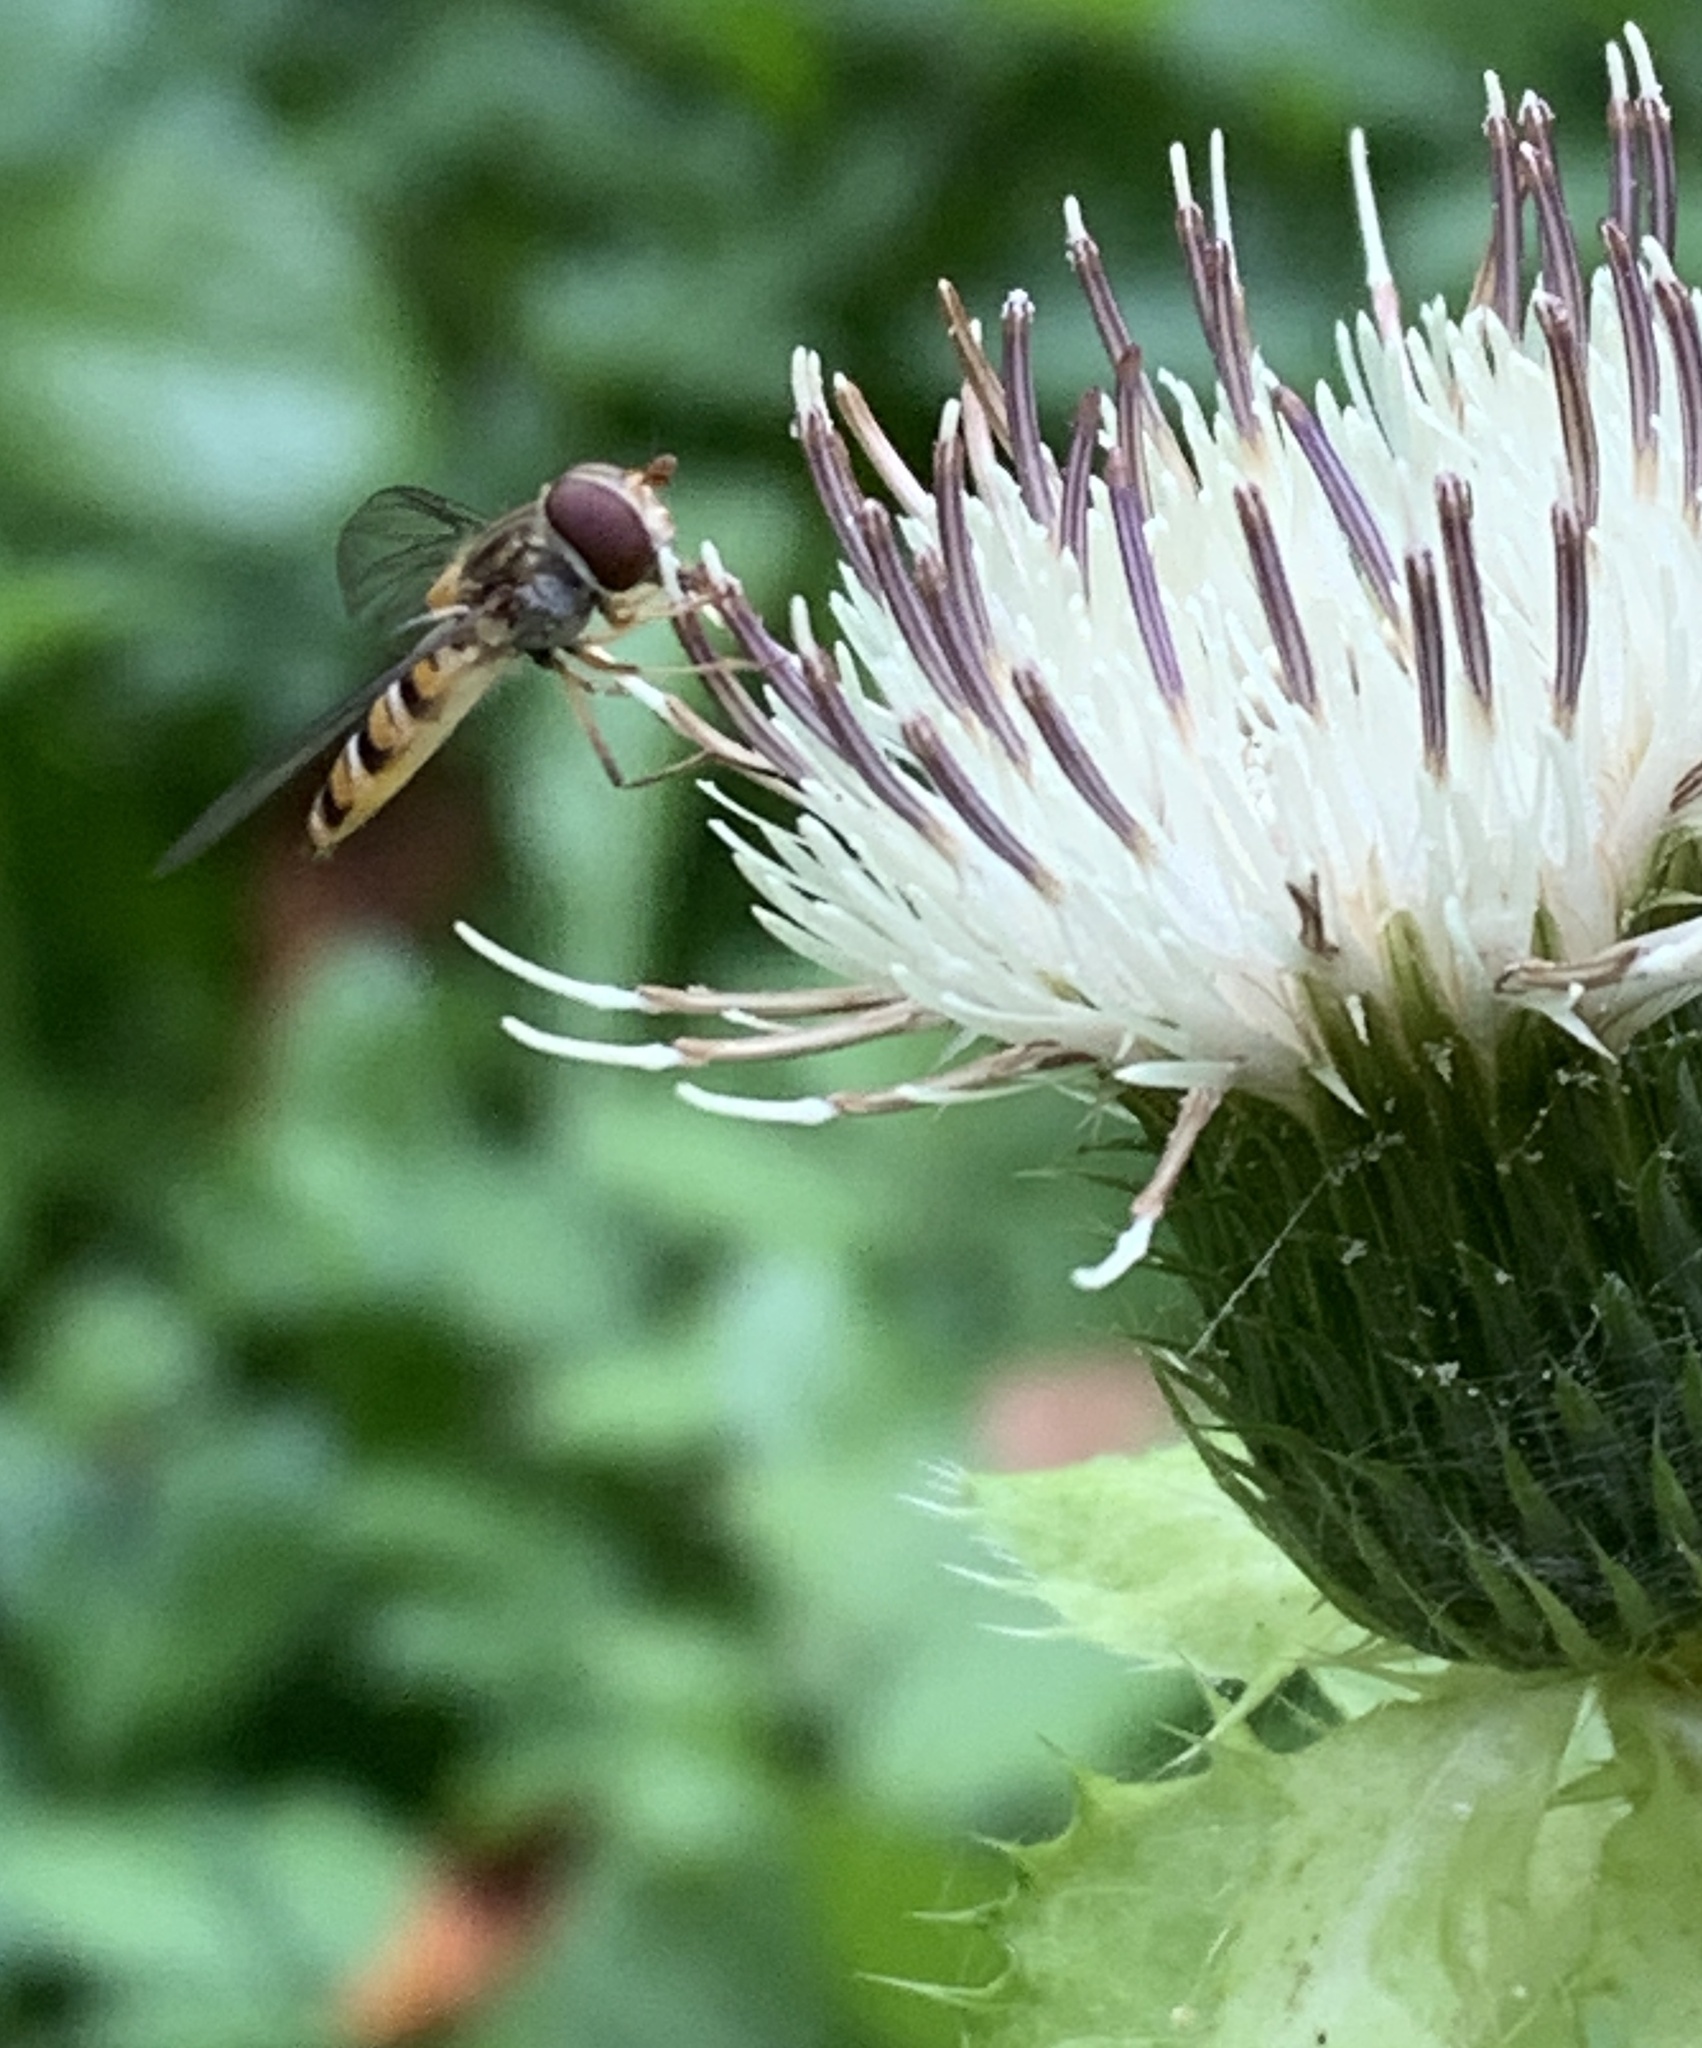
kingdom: Plantae
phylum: Tracheophyta
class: Magnoliopsida
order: Asterales
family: Asteraceae
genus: Cirsium
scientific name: Cirsium oleraceum
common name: Cabbage thistle
